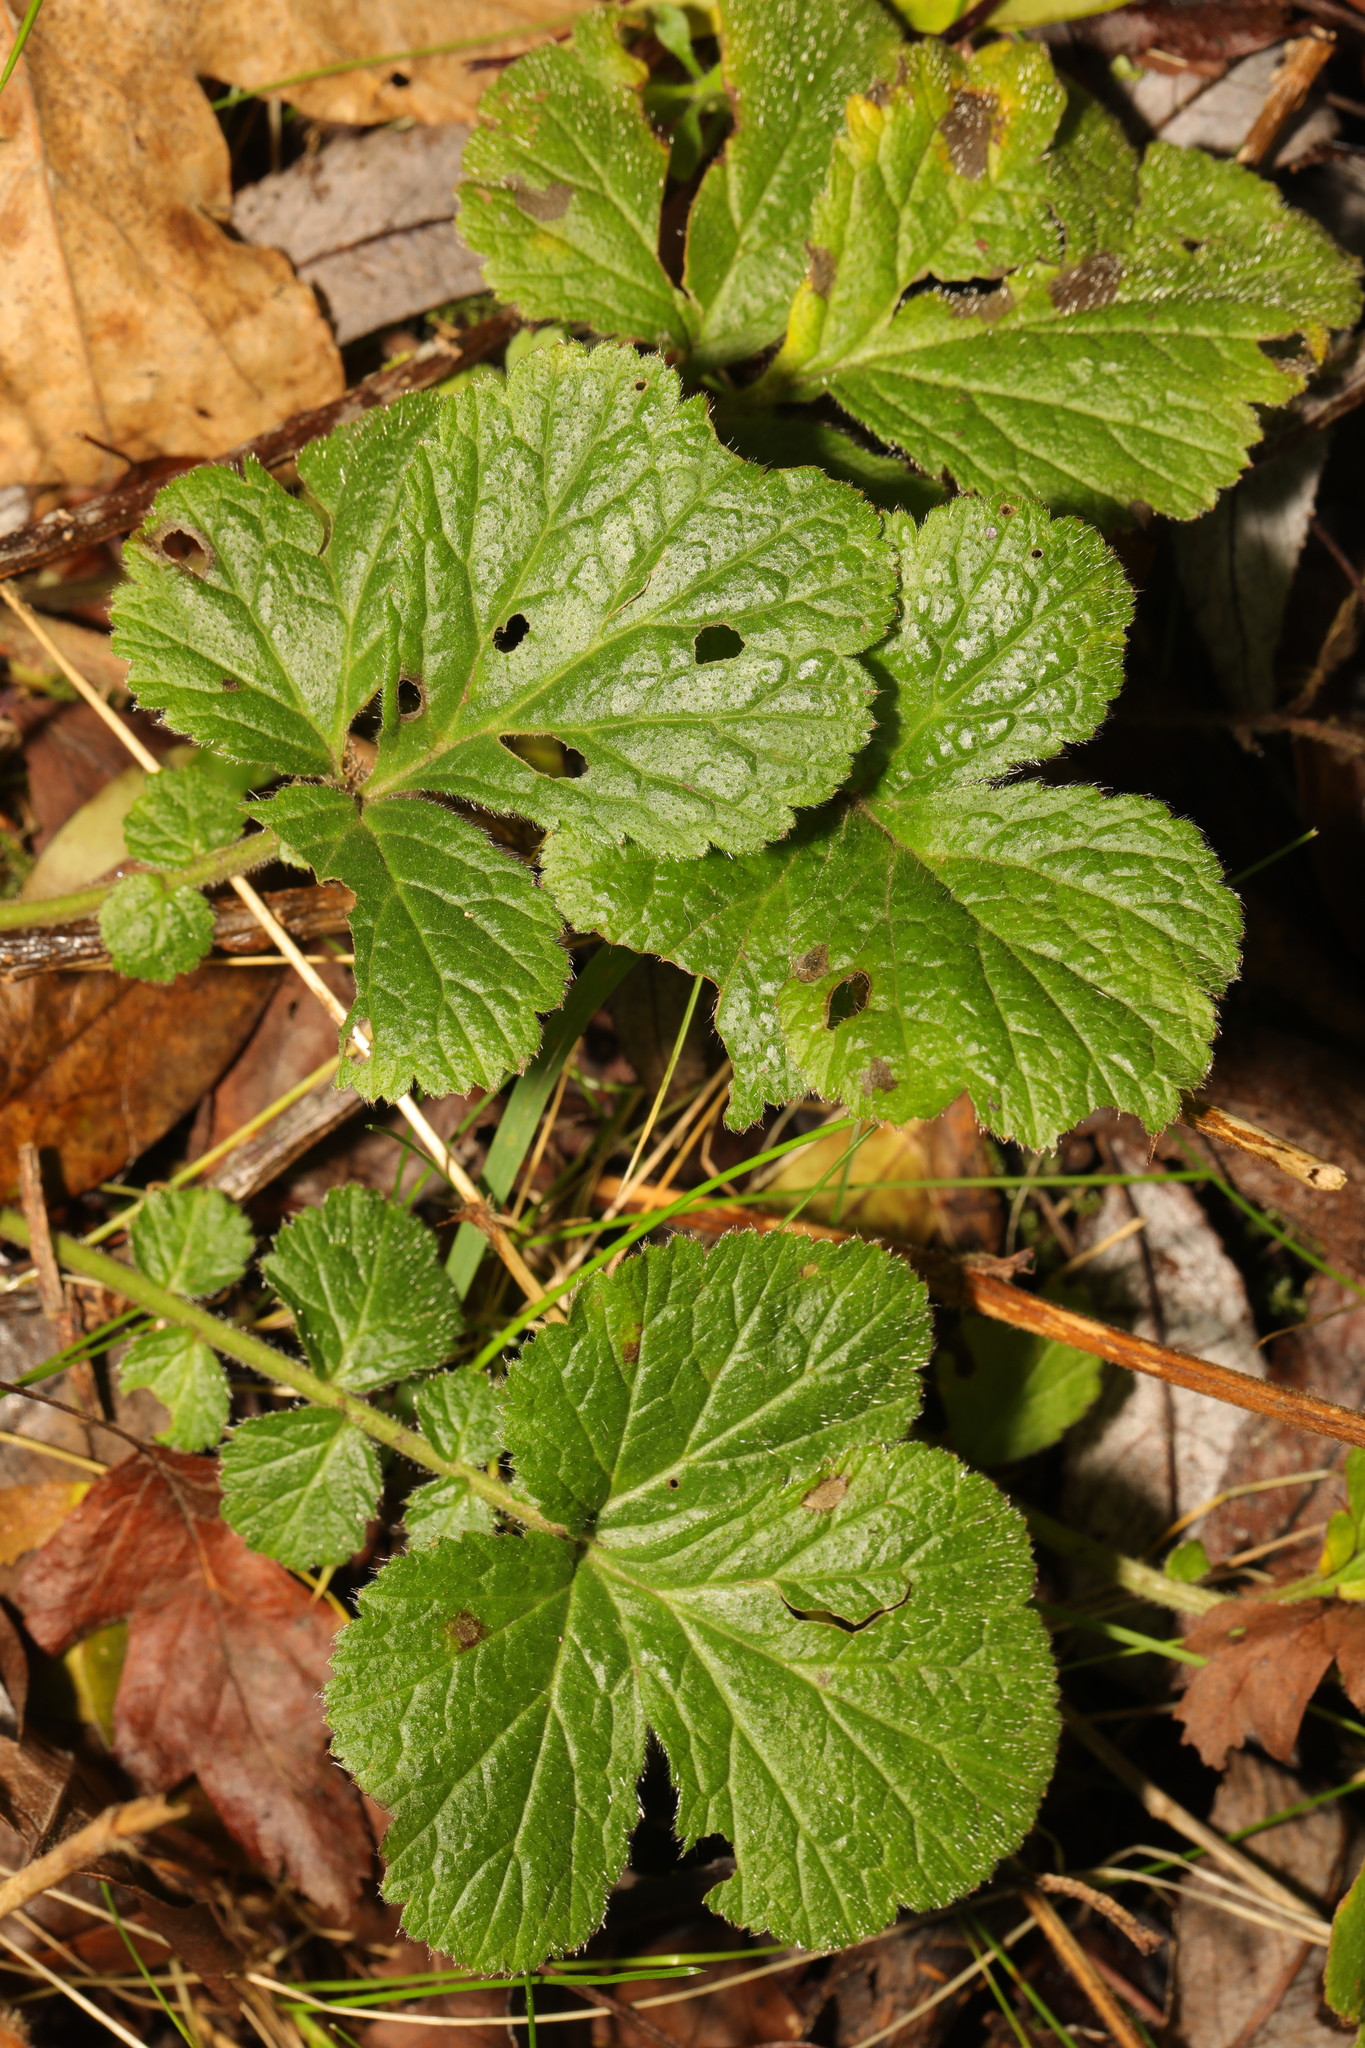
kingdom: Plantae
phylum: Tracheophyta
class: Magnoliopsida
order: Rosales
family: Rosaceae
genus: Geum
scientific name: Geum urbanum
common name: Wood avens
